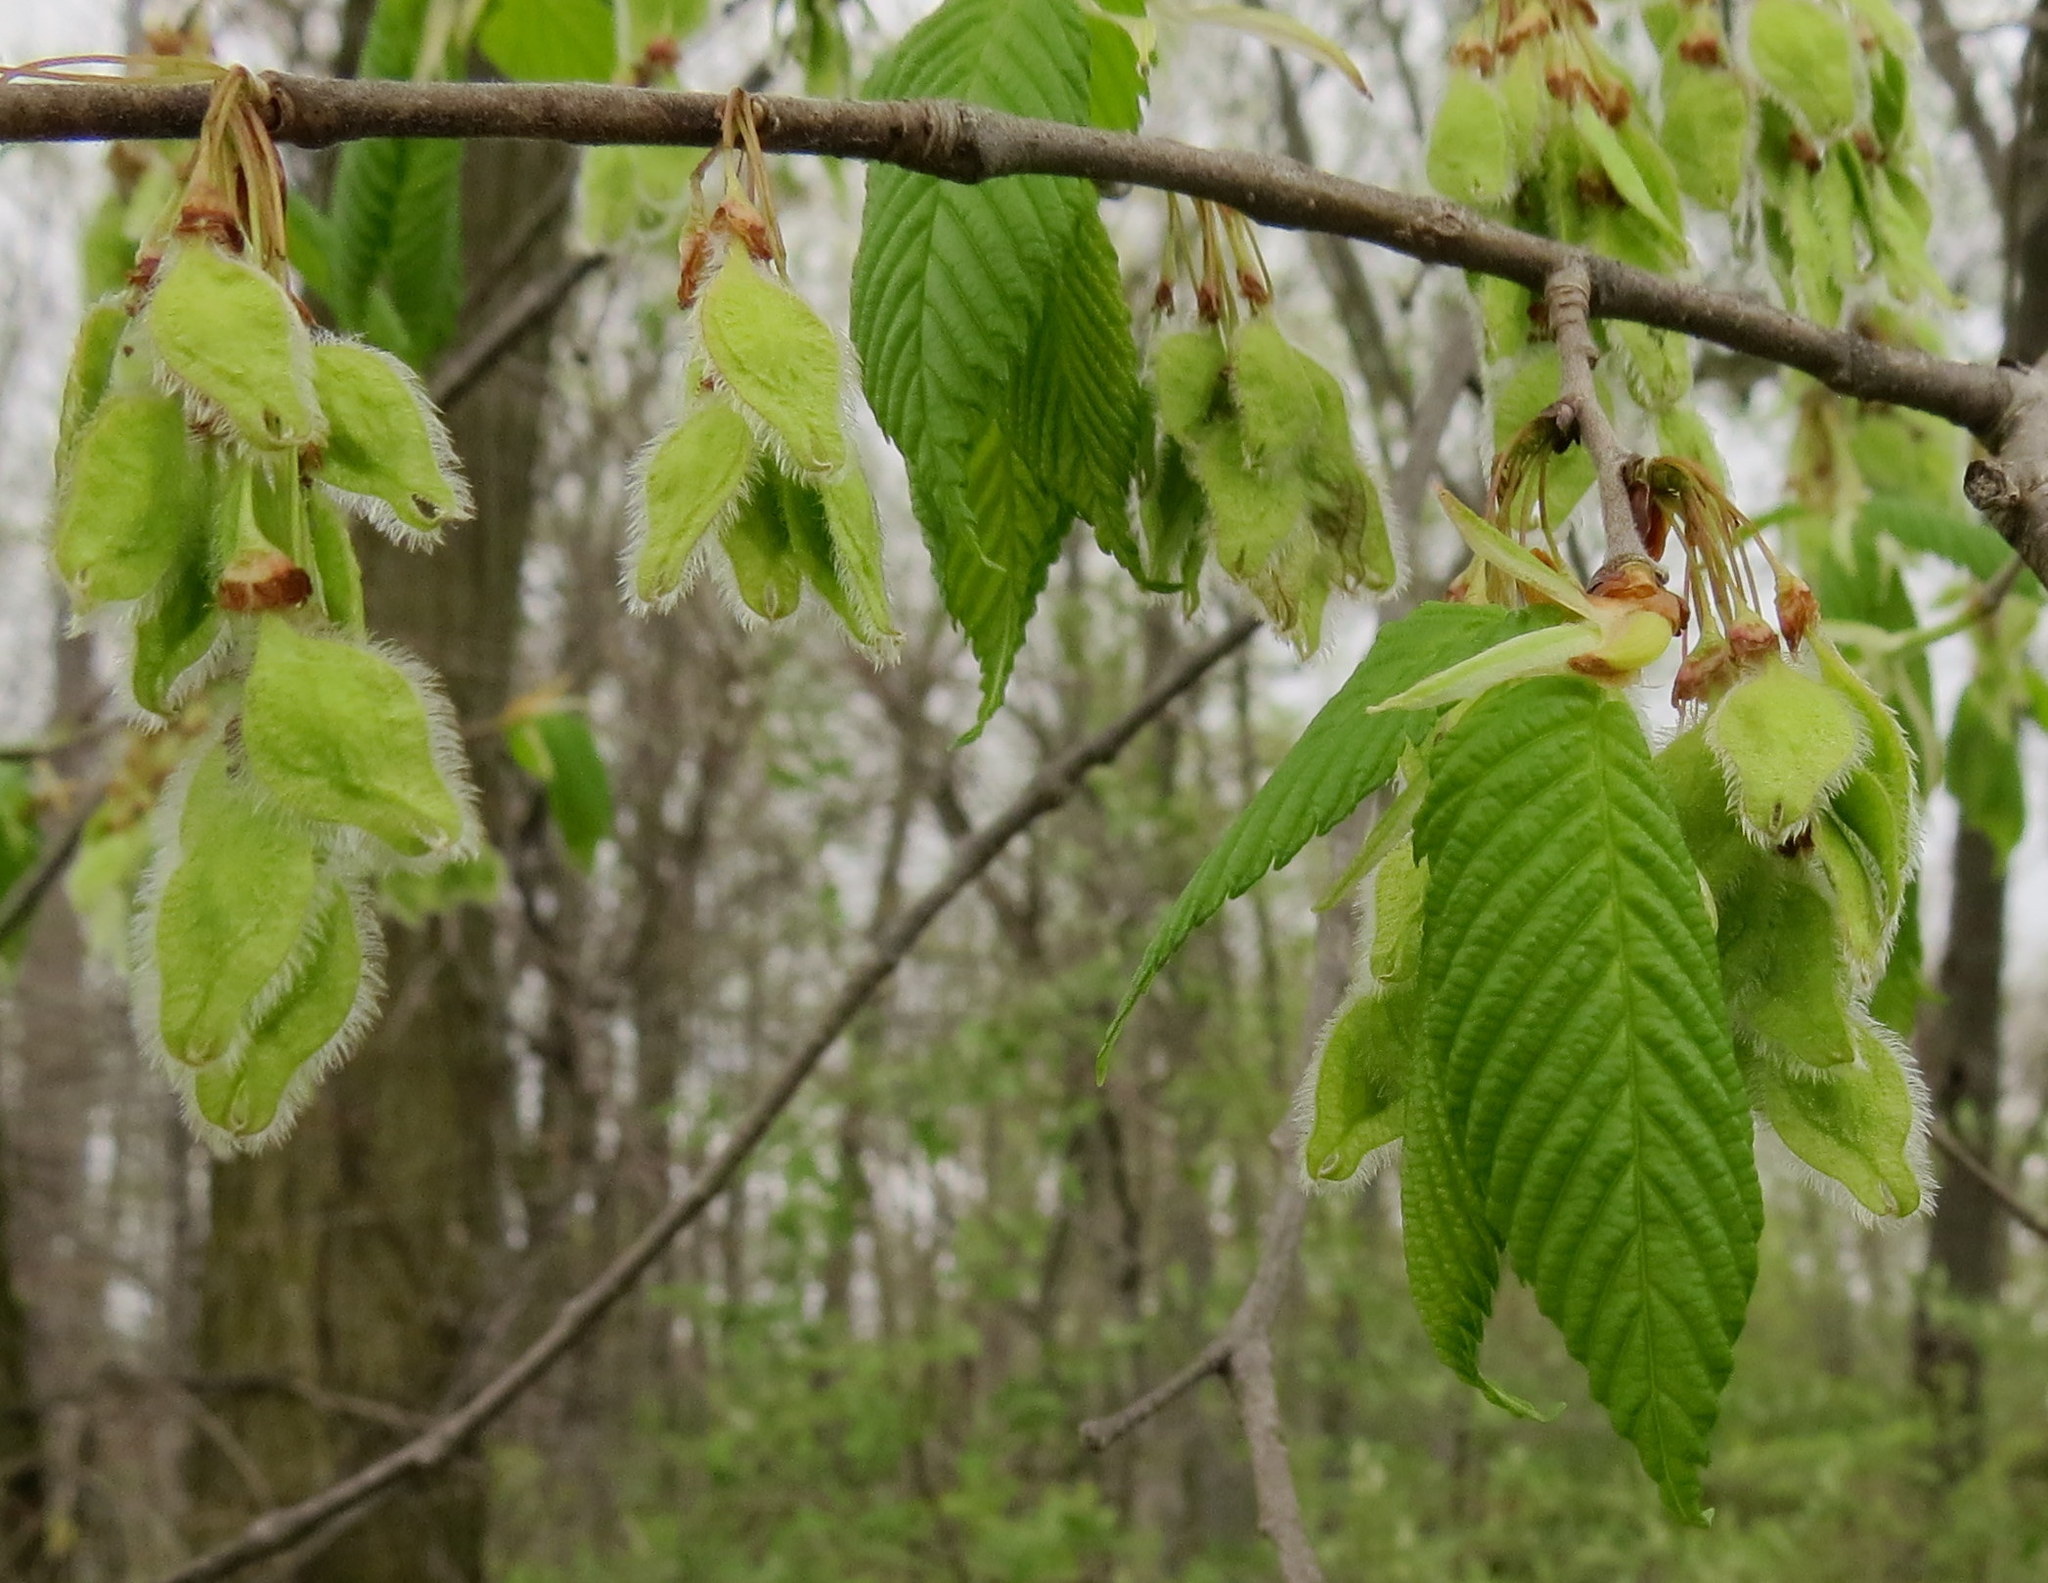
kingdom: Plantae
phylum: Tracheophyta
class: Magnoliopsida
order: Rosales
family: Ulmaceae
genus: Ulmus
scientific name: Ulmus americana
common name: American elm
